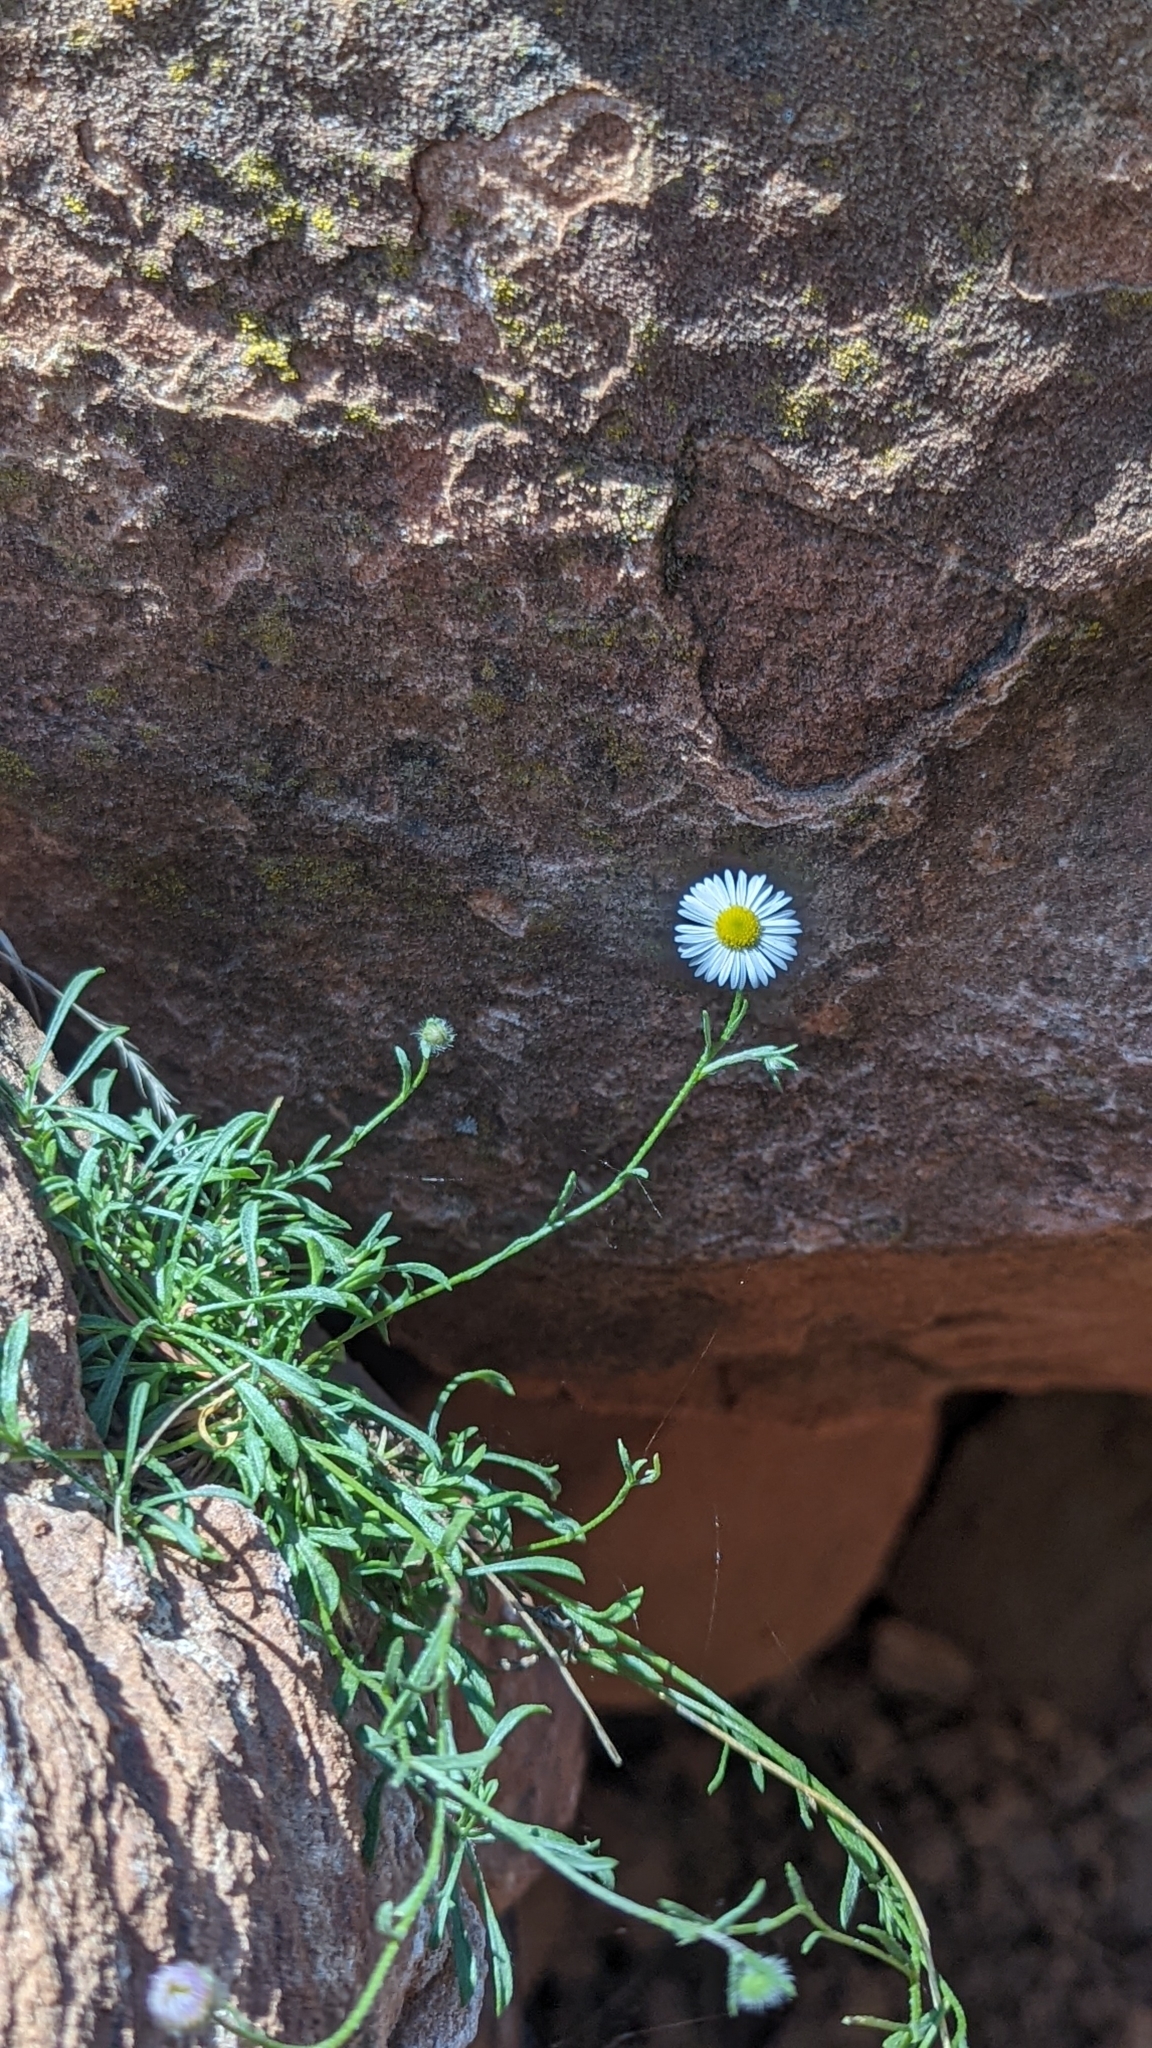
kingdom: Plantae
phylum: Tracheophyta
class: Magnoliopsida
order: Asterales
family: Asteraceae
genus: Erigeron
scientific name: Erigeron sionis
